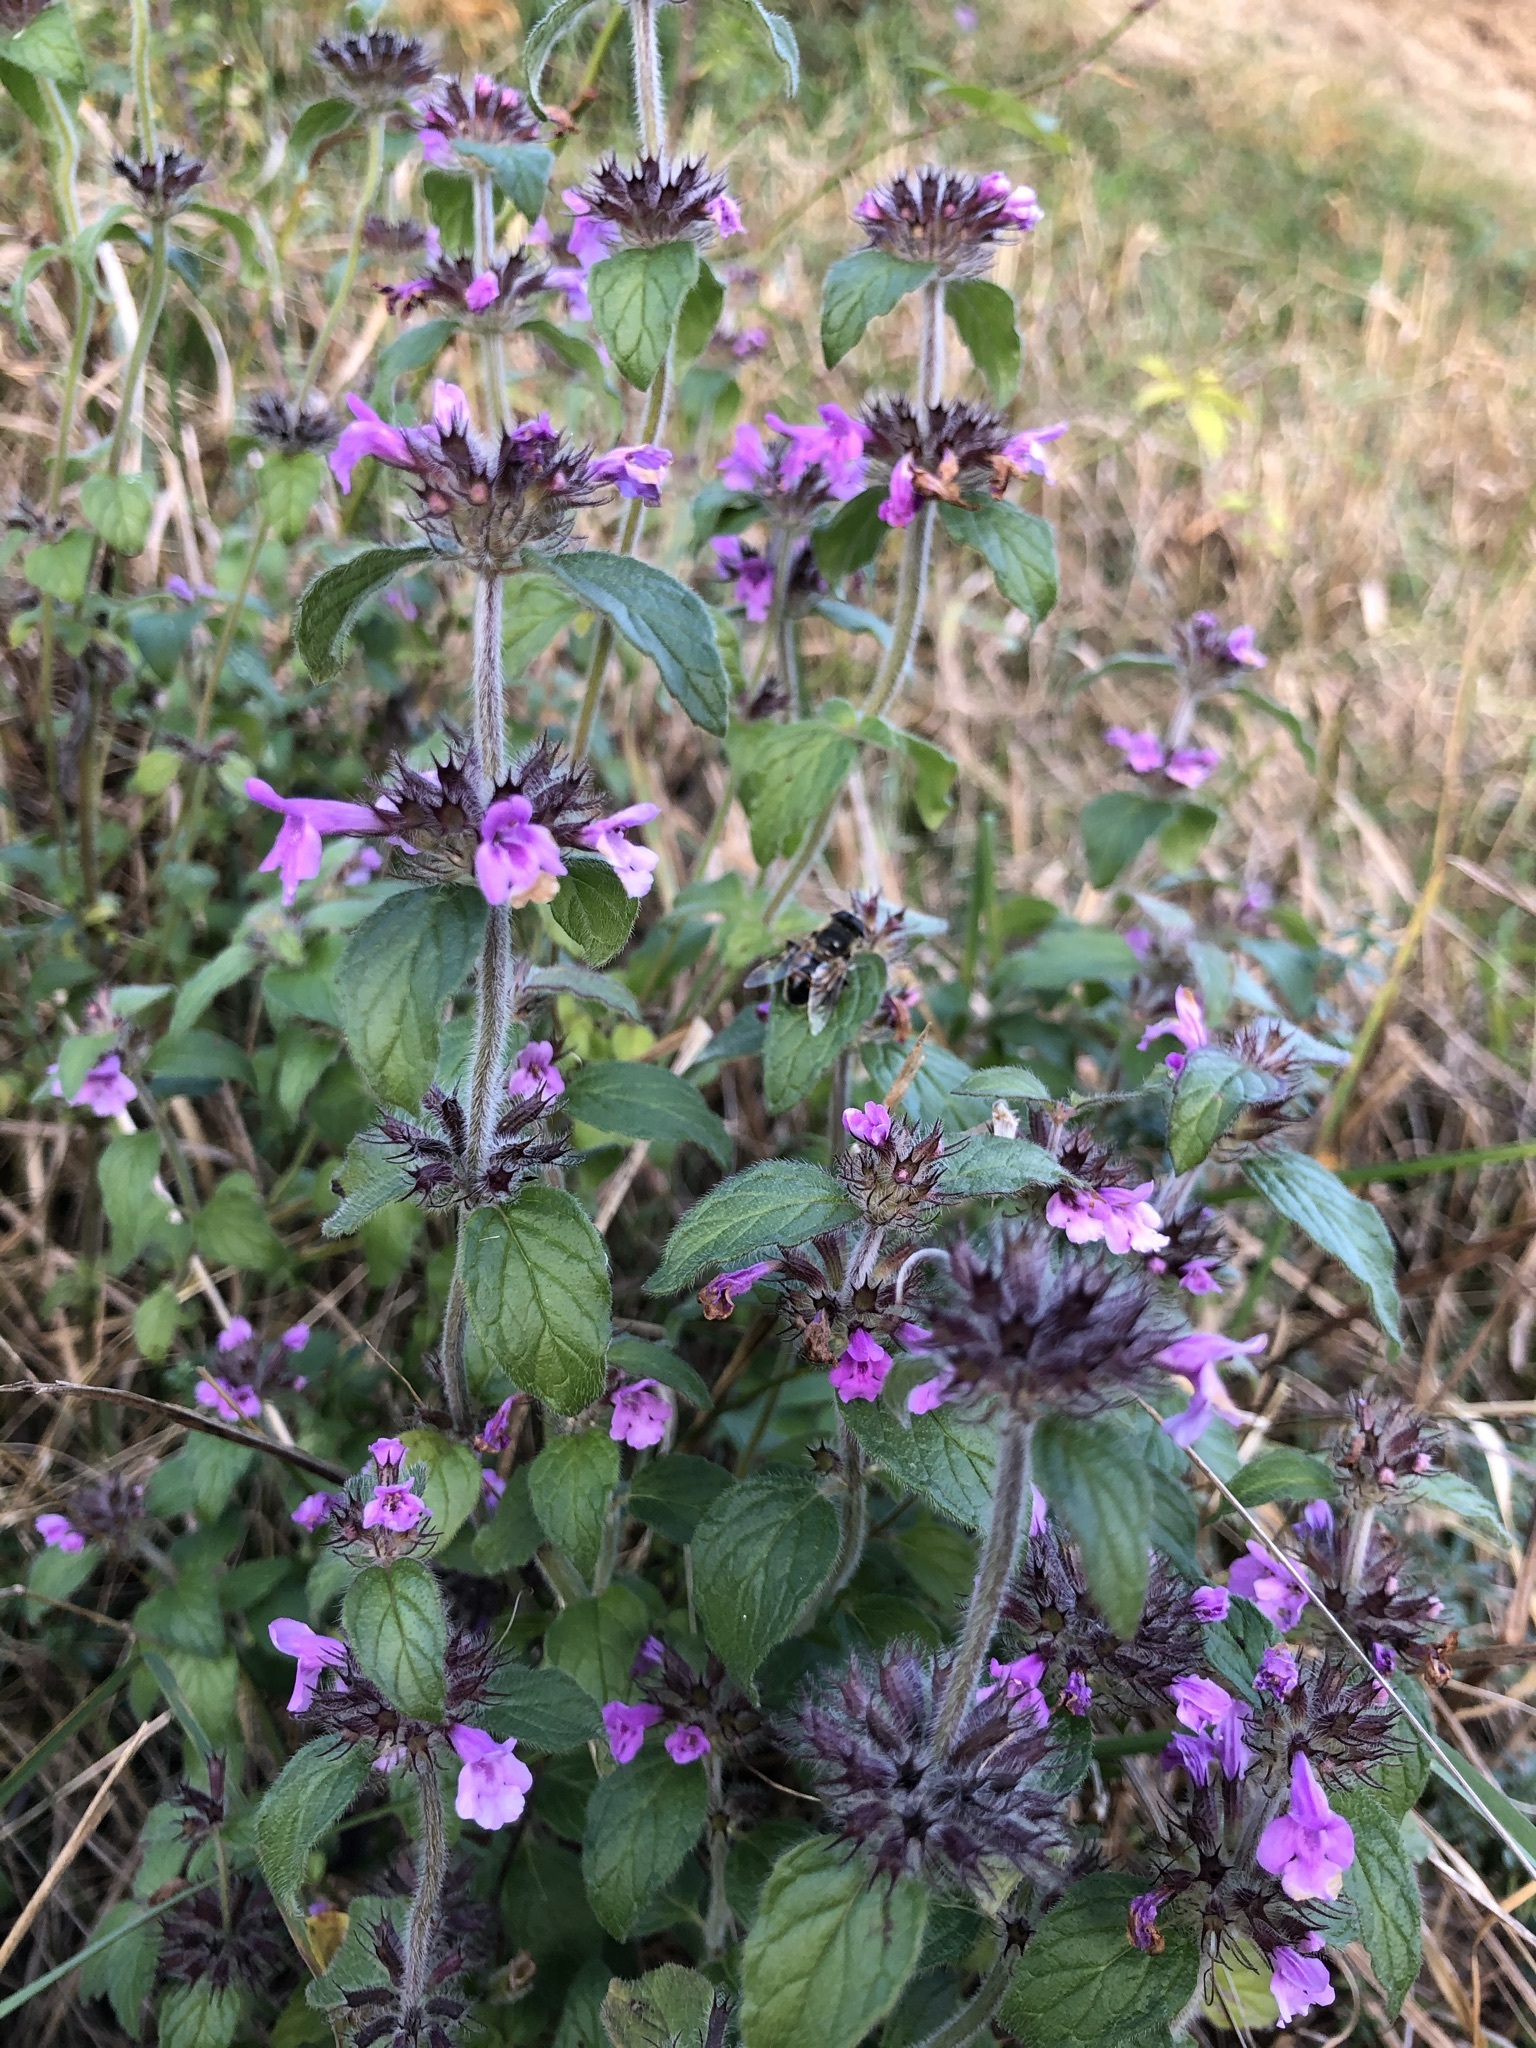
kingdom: Plantae
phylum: Tracheophyta
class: Magnoliopsida
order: Lamiales
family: Lamiaceae
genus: Clinopodium
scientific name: Clinopodium vulgare
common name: Wild basil
